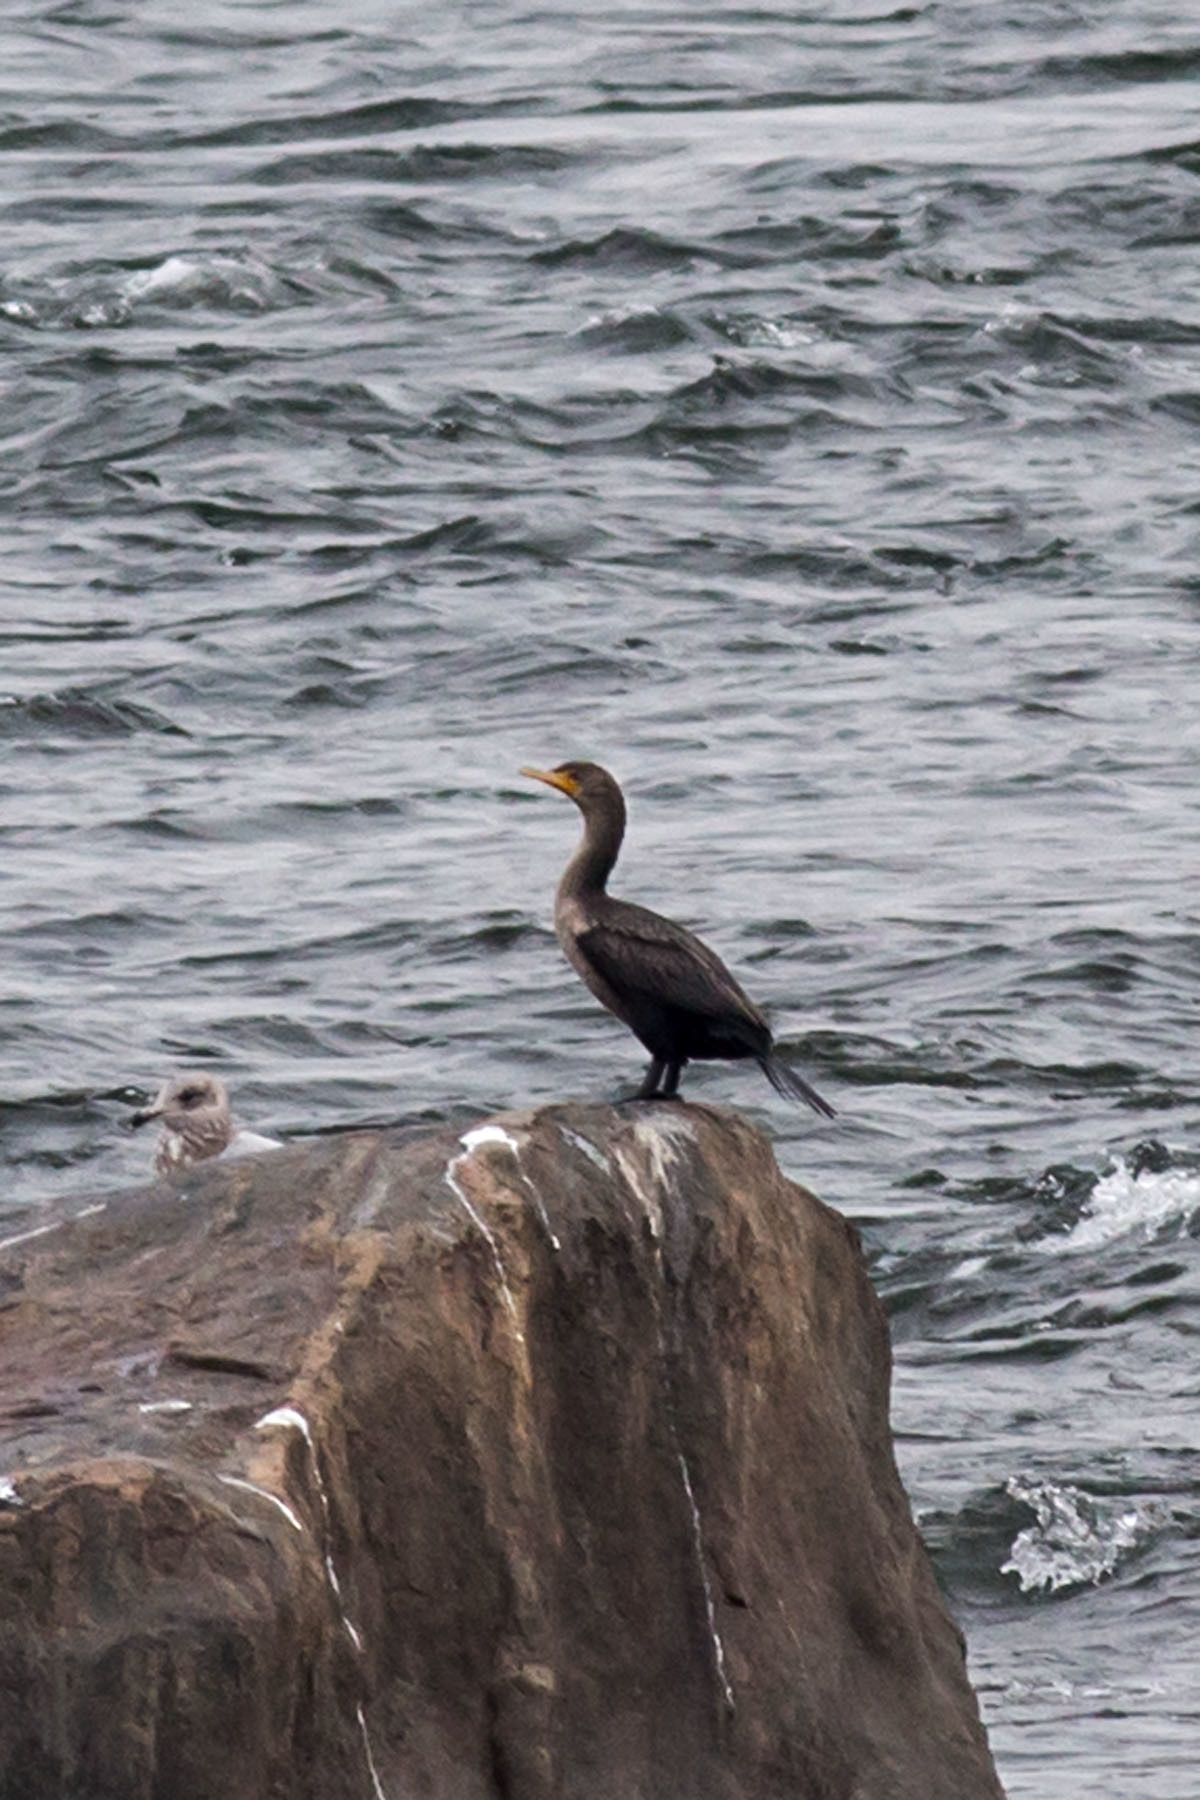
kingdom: Animalia
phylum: Chordata
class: Aves
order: Suliformes
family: Phalacrocoracidae
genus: Phalacrocorax
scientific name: Phalacrocorax auritus
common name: Double-crested cormorant
